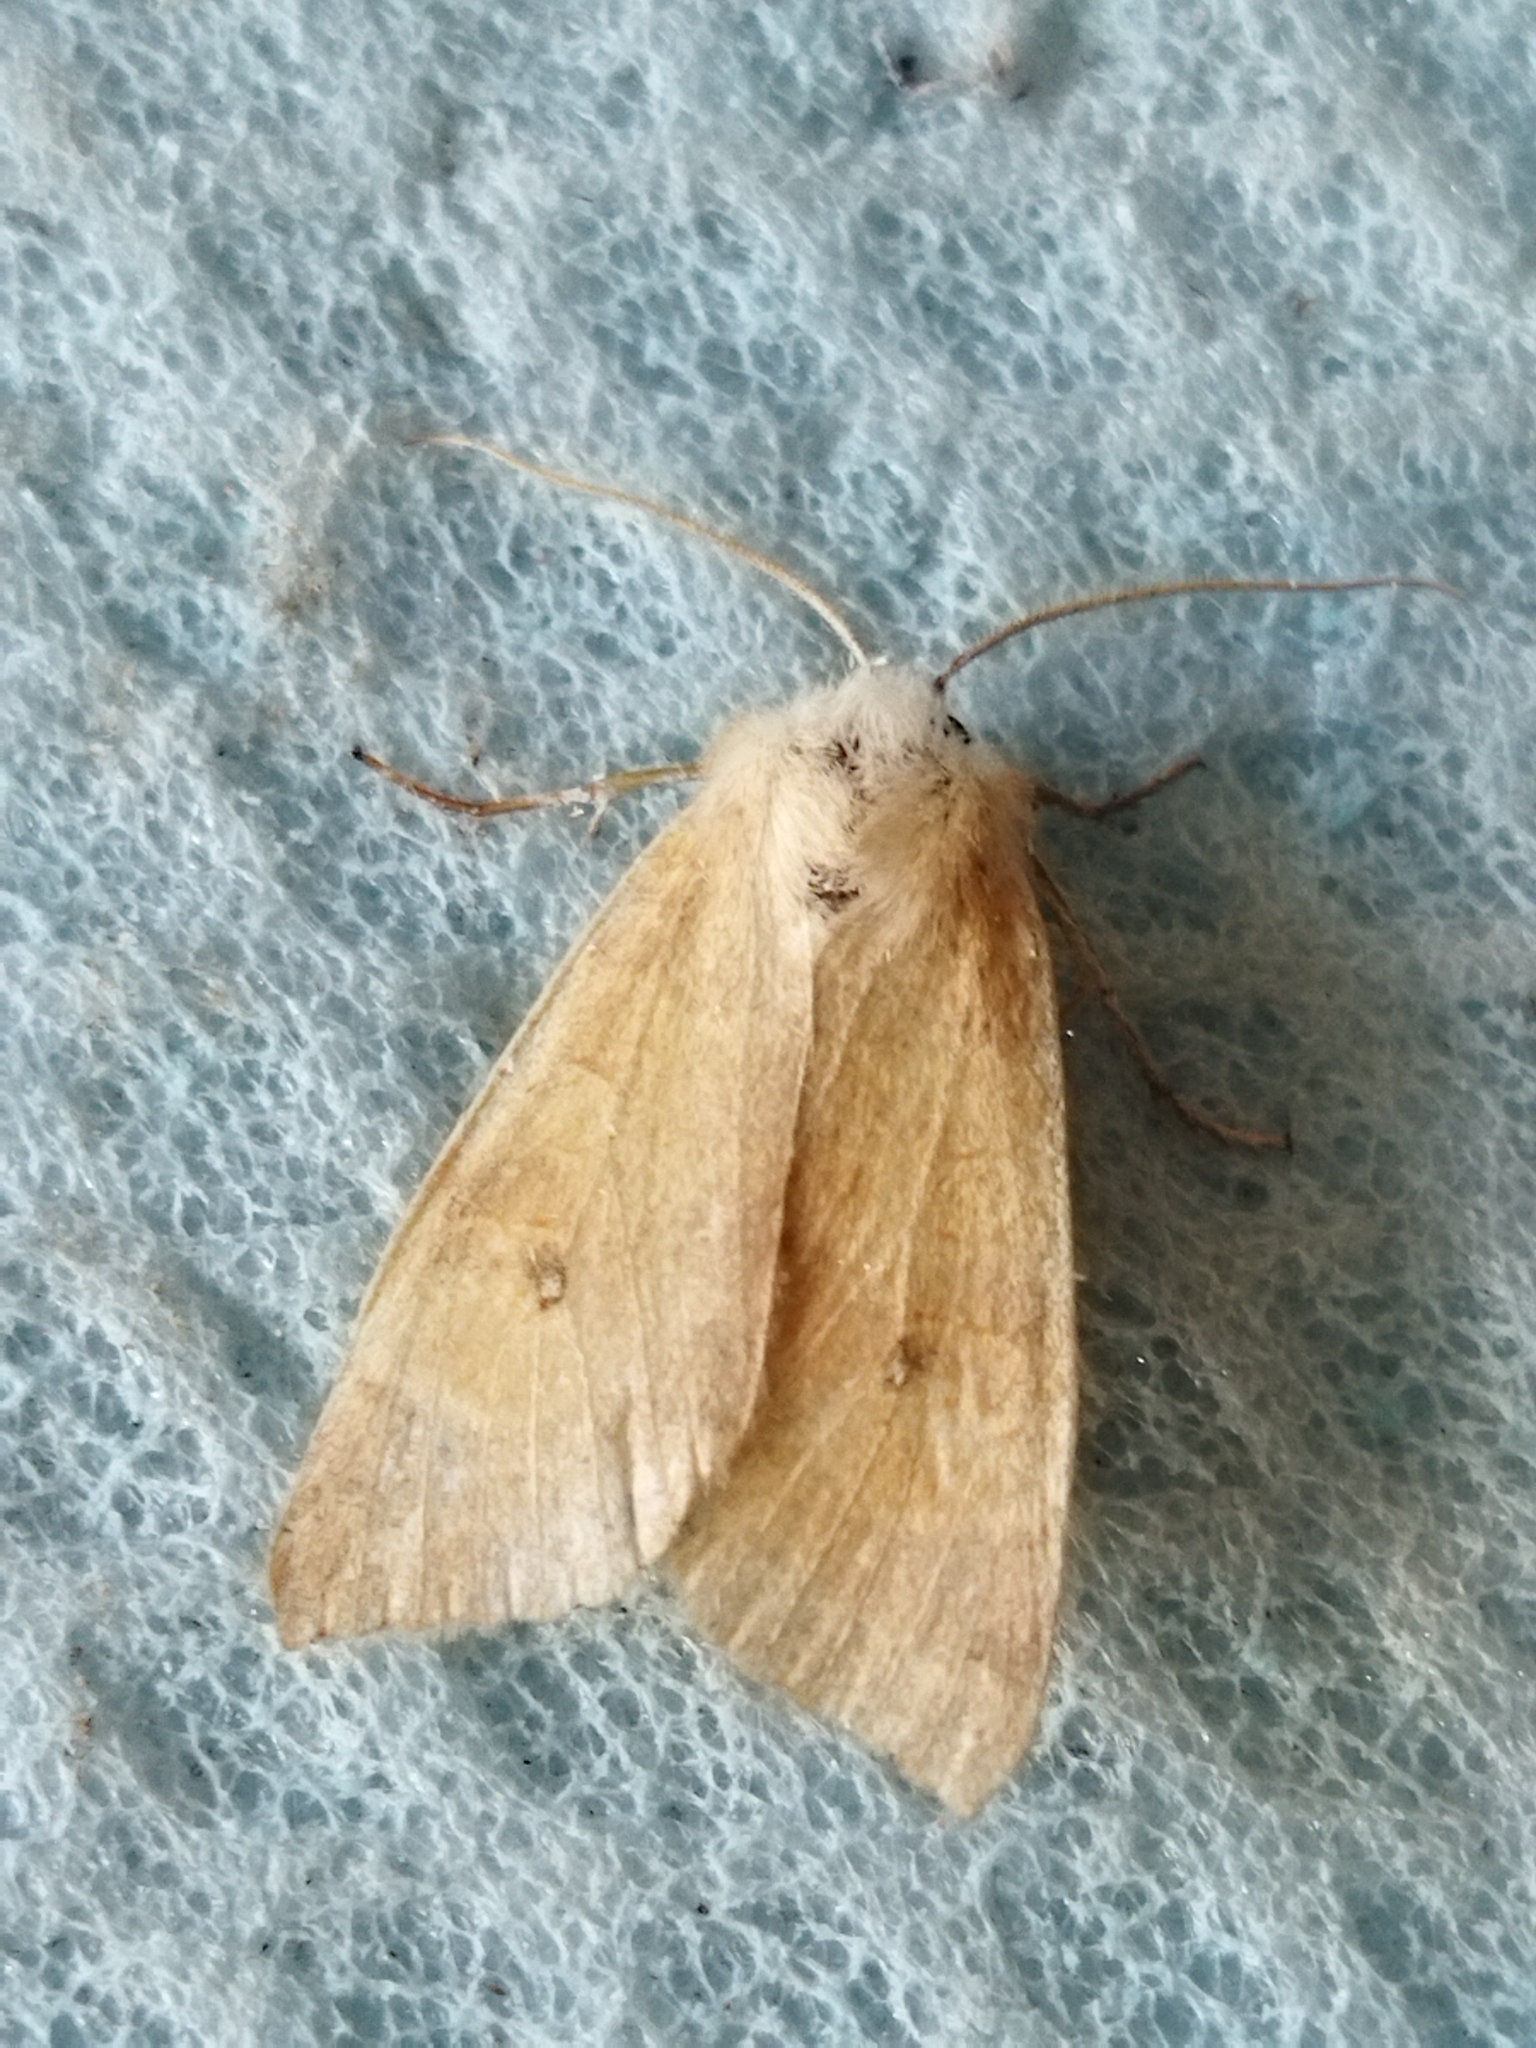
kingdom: Animalia
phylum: Arthropoda
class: Insecta
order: Lepidoptera
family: Noctuidae
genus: Xanthia
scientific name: Xanthia ocellaris
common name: Pale-lemon sallow
